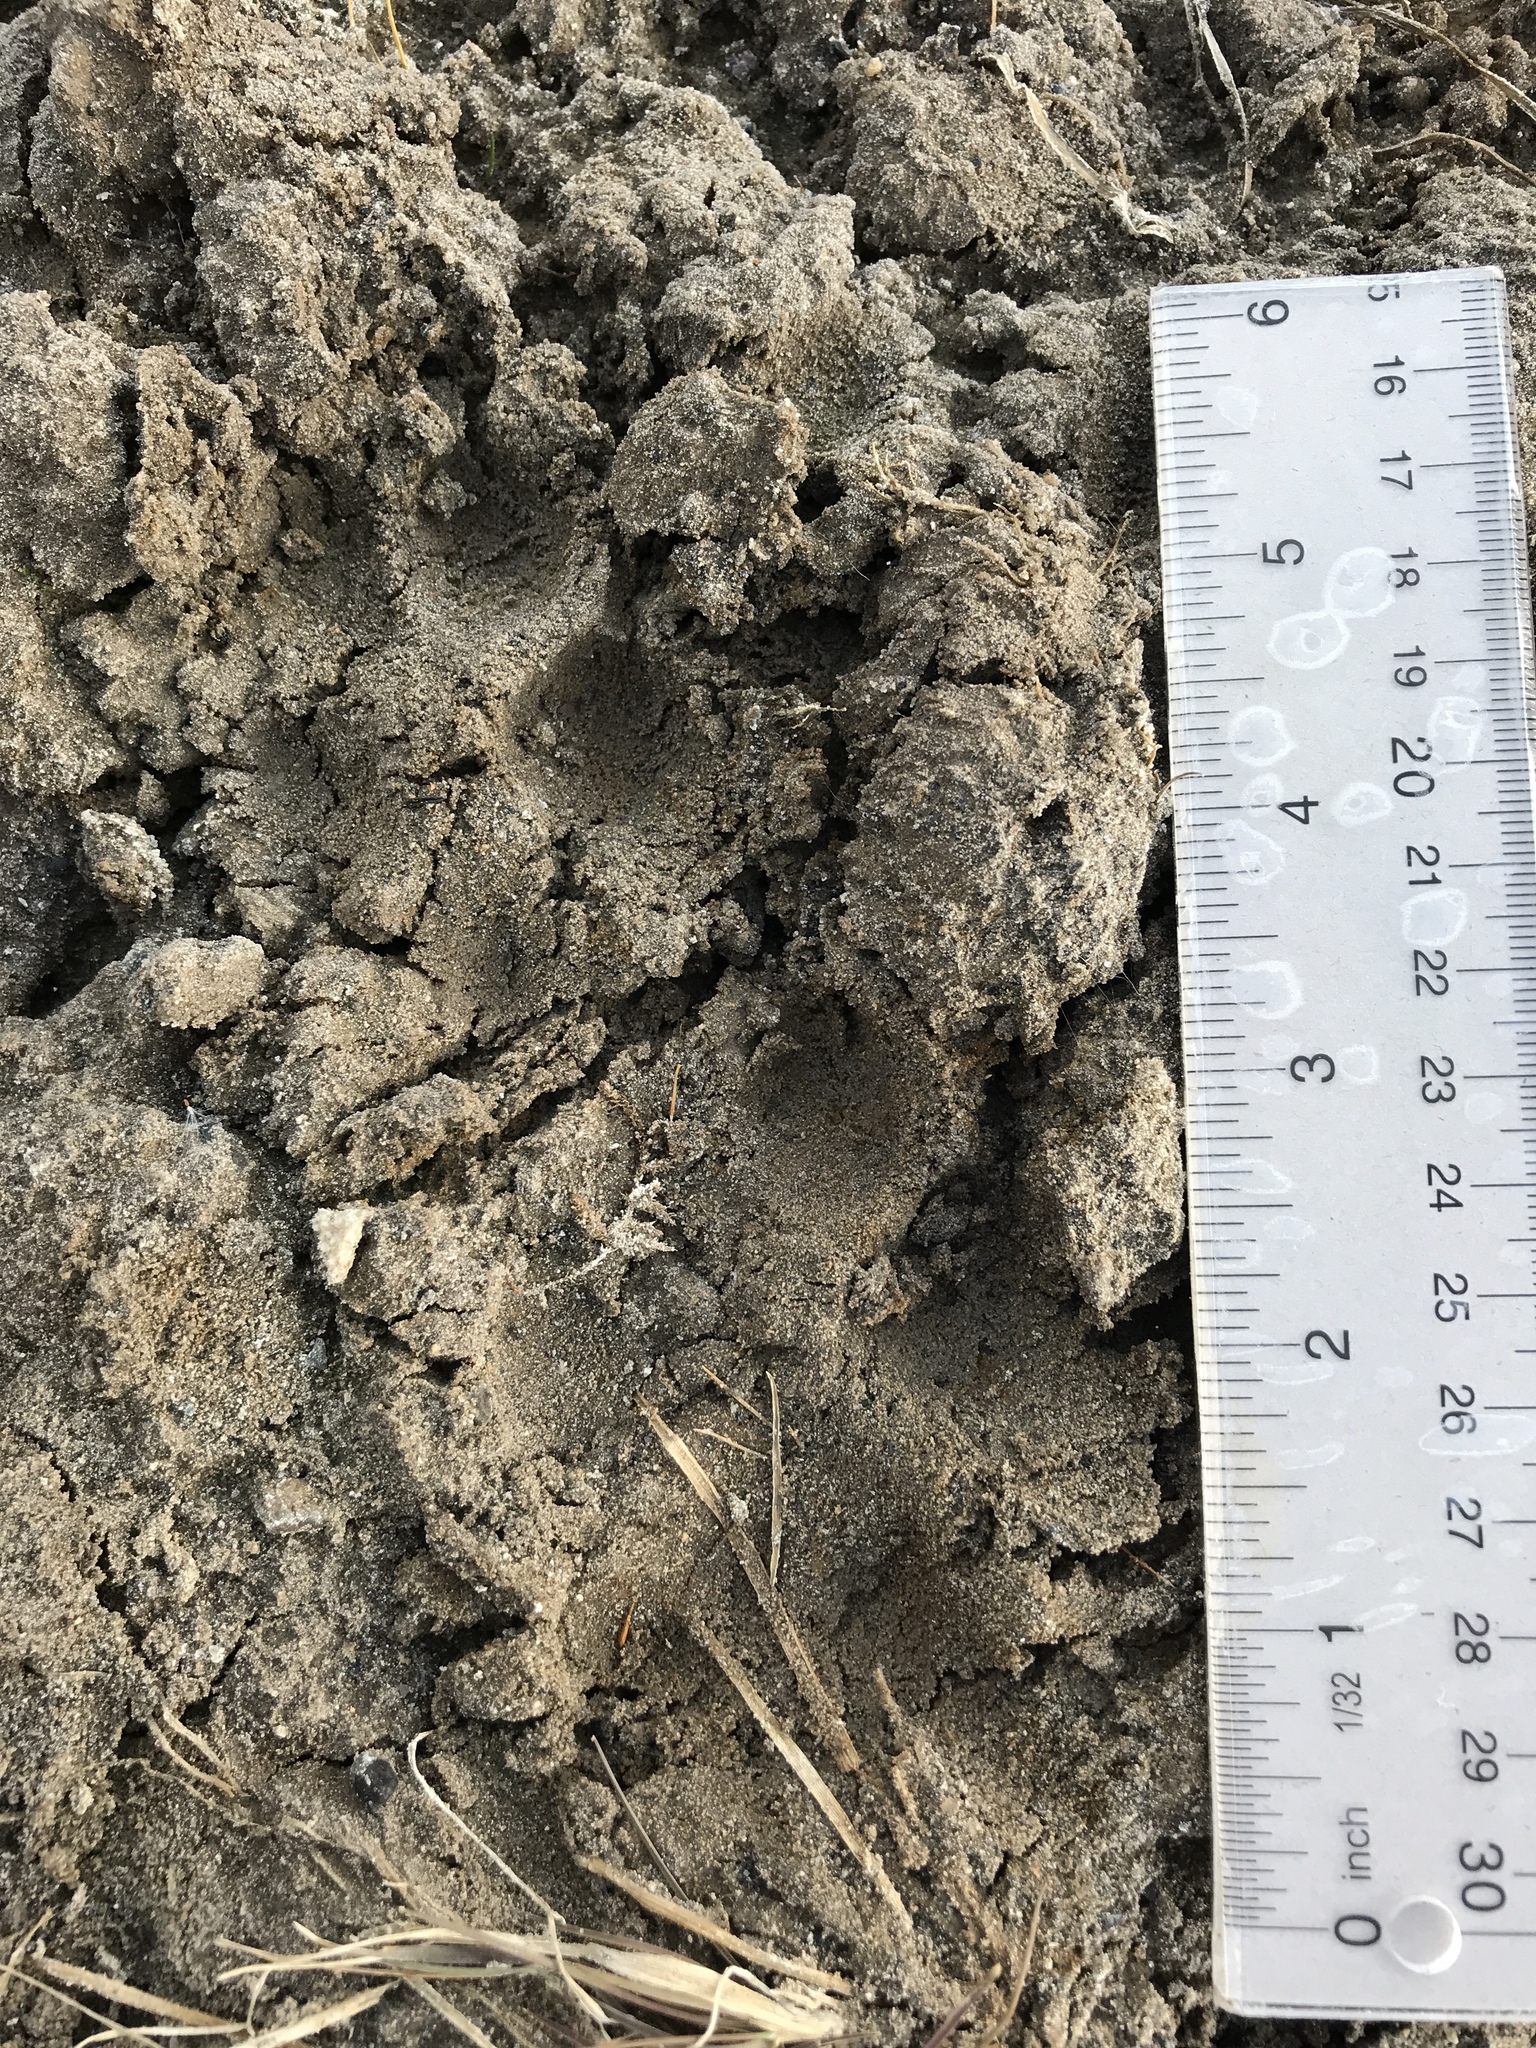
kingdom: Animalia
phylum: Chordata
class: Mammalia
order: Carnivora
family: Canidae
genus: Canis
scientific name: Canis latrans
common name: Coyote
